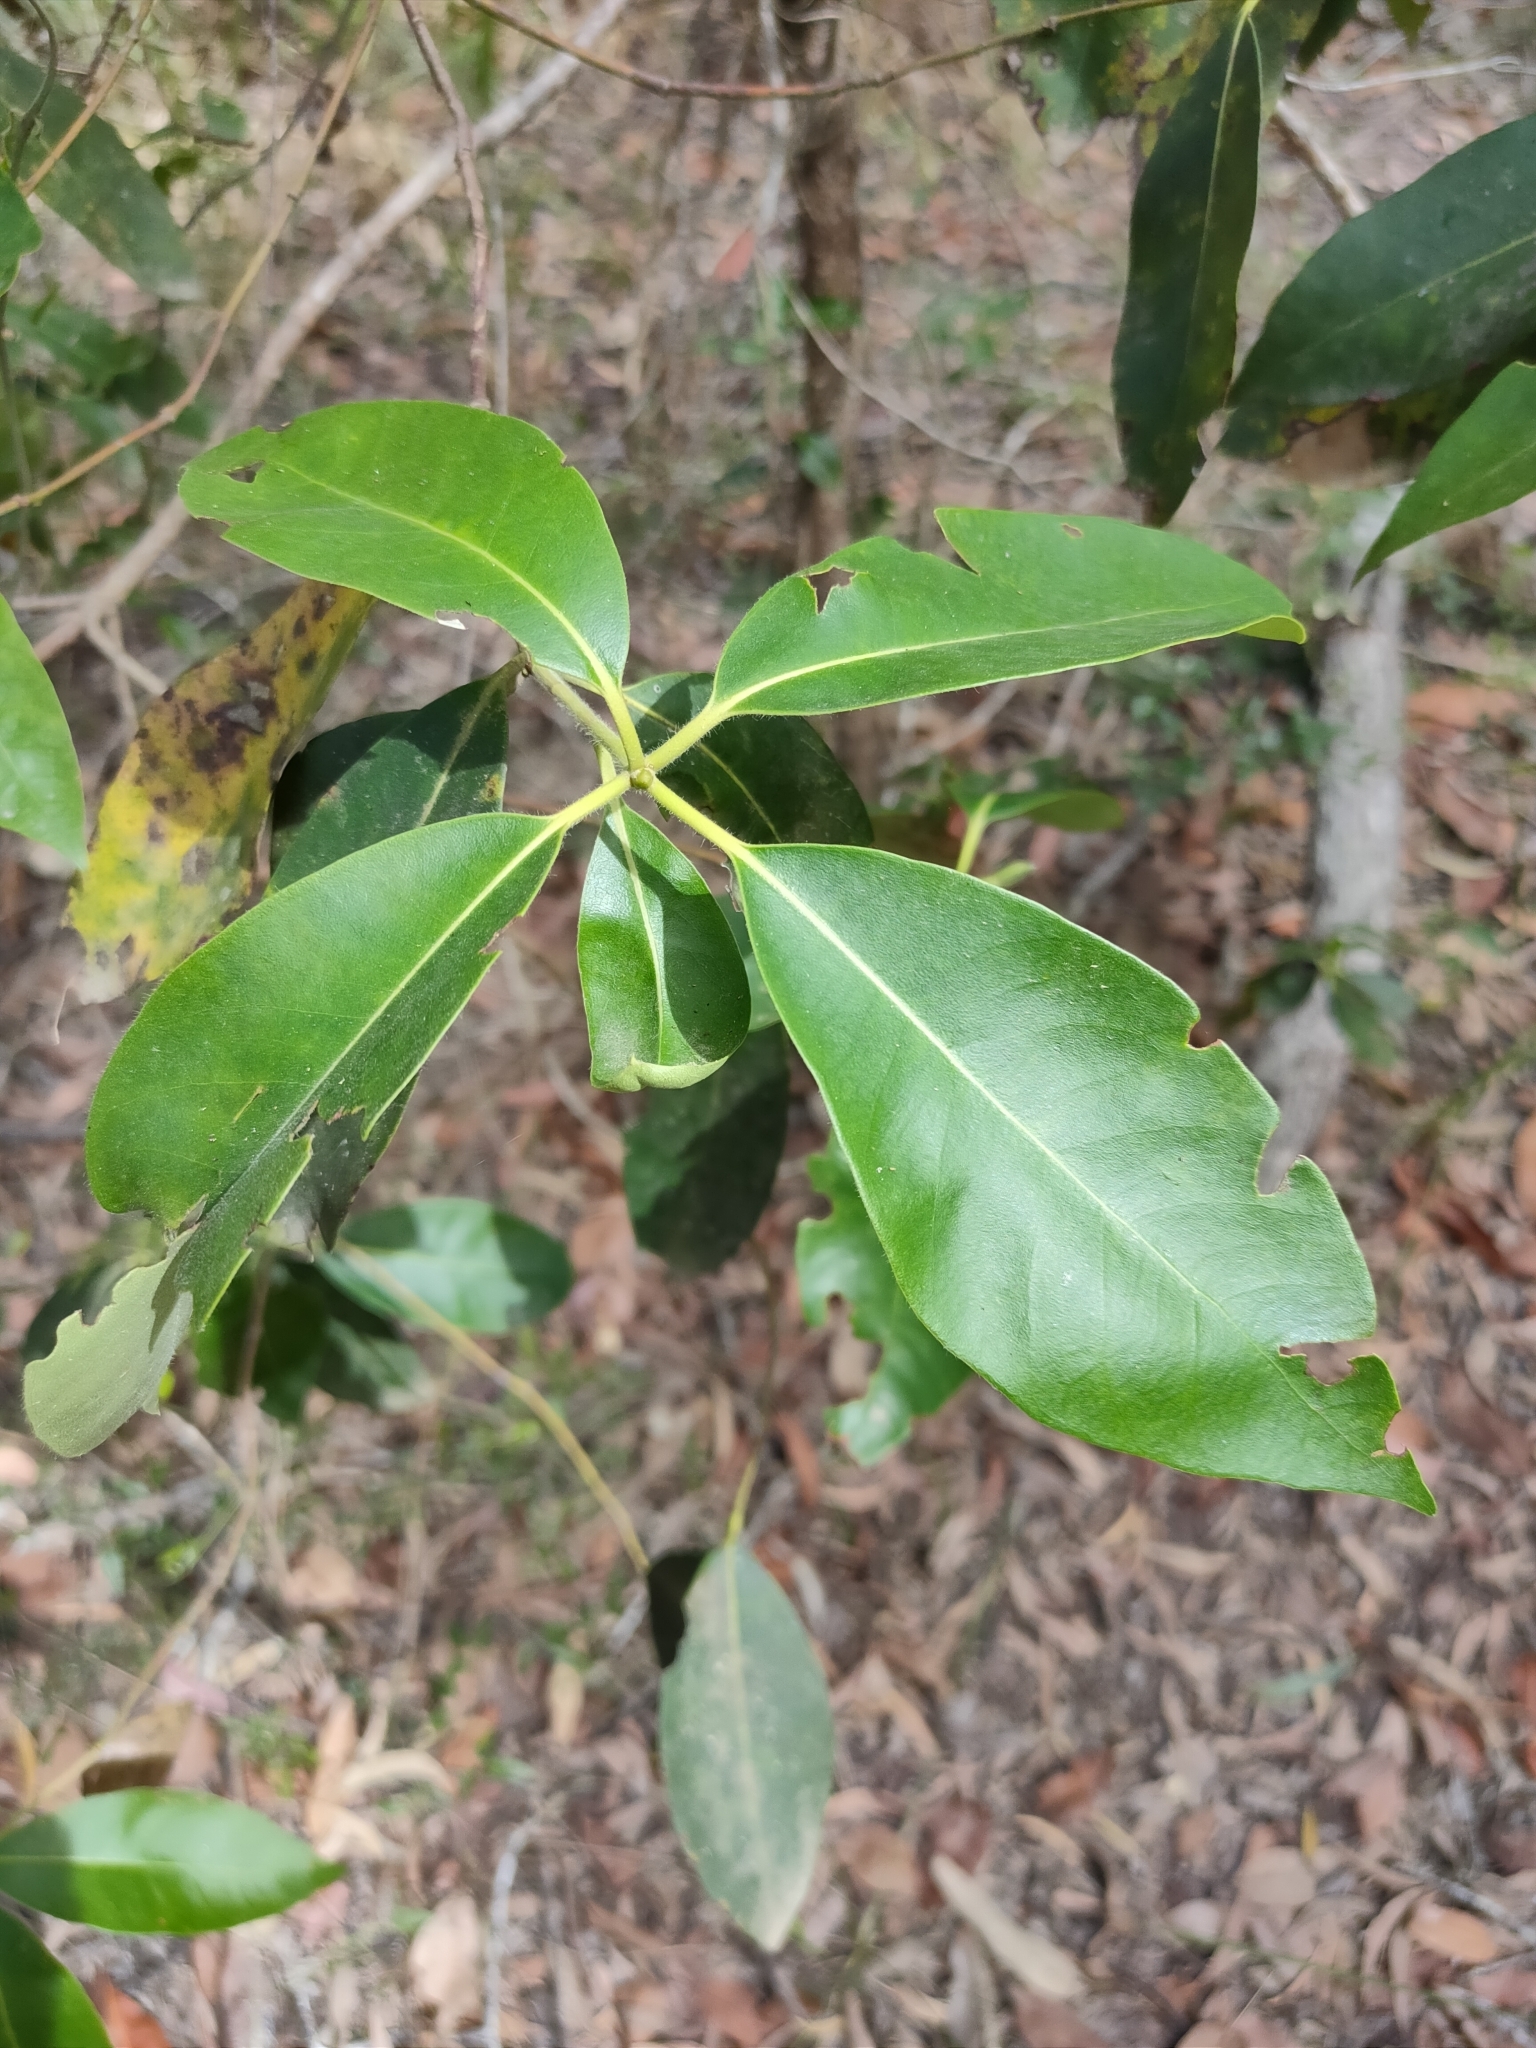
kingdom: Plantae
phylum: Tracheophyta
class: Magnoliopsida
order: Myrtales
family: Myrtaceae
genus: Lophostemon
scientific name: Lophostemon confertus
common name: Brisbane box
